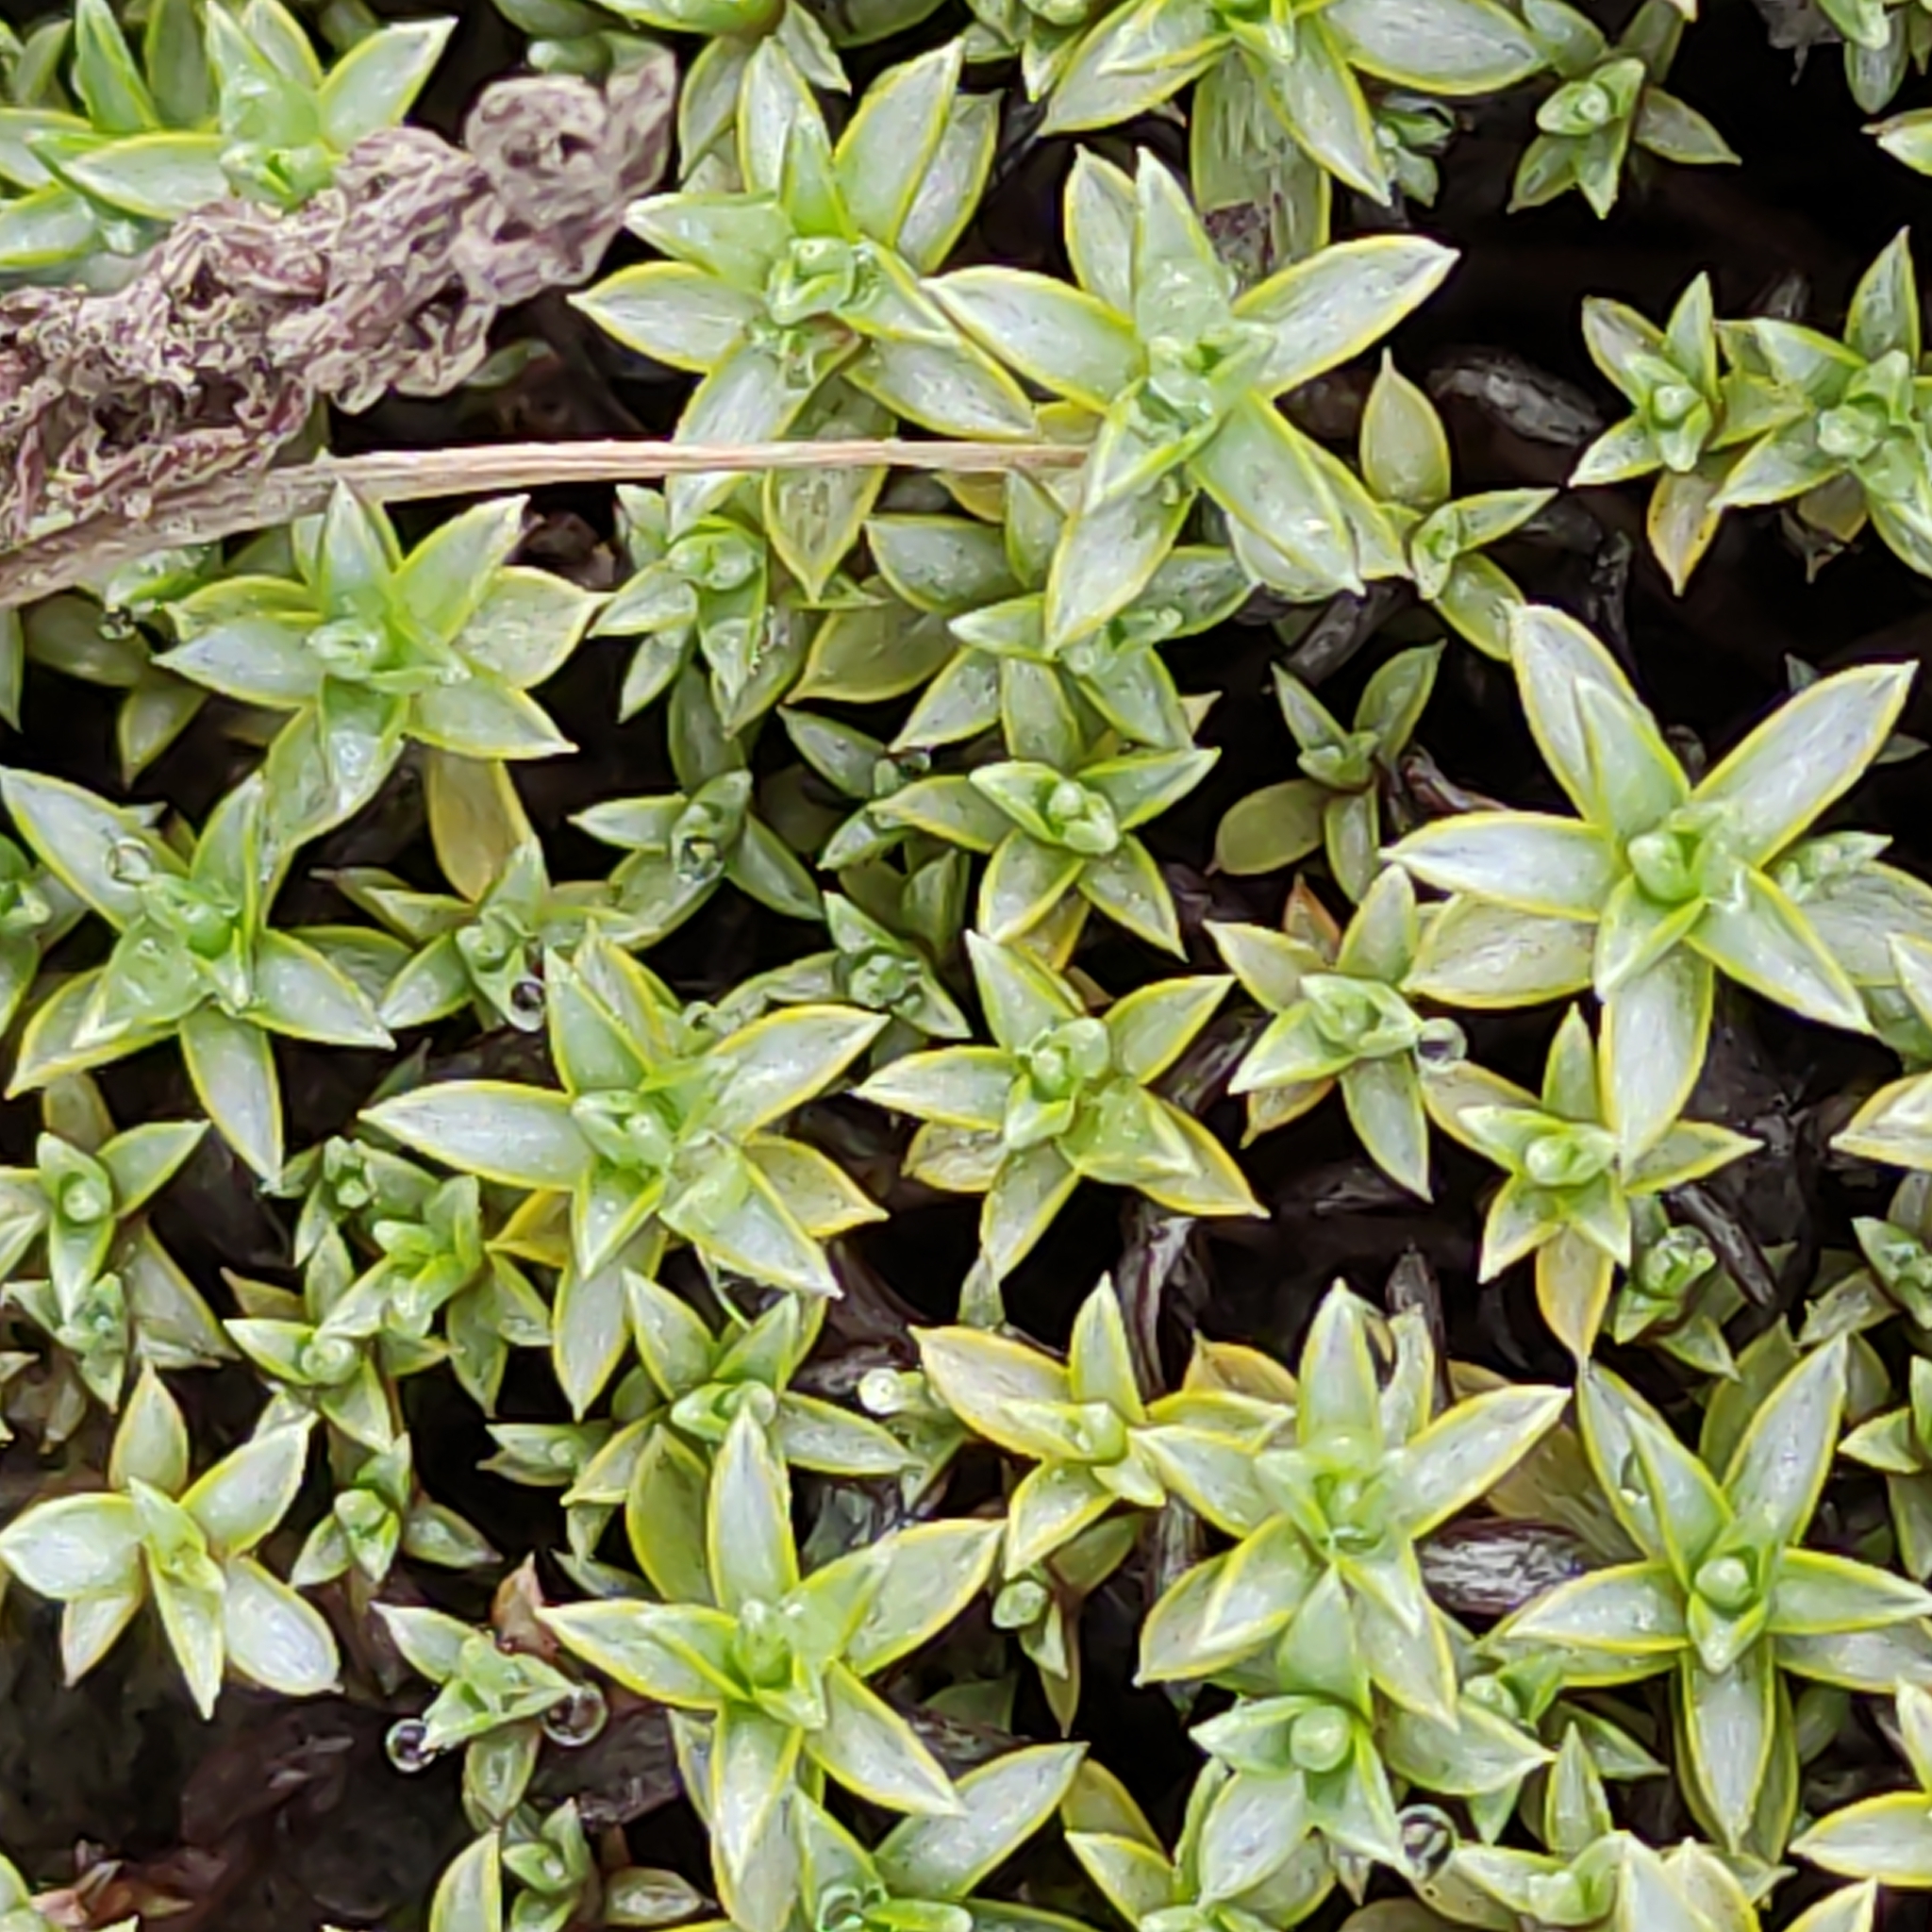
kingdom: Plantae
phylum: Tracheophyta
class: Magnoliopsida
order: Asterales
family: Asteraceae
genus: Raoulia
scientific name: Raoulia tenuicaulis
